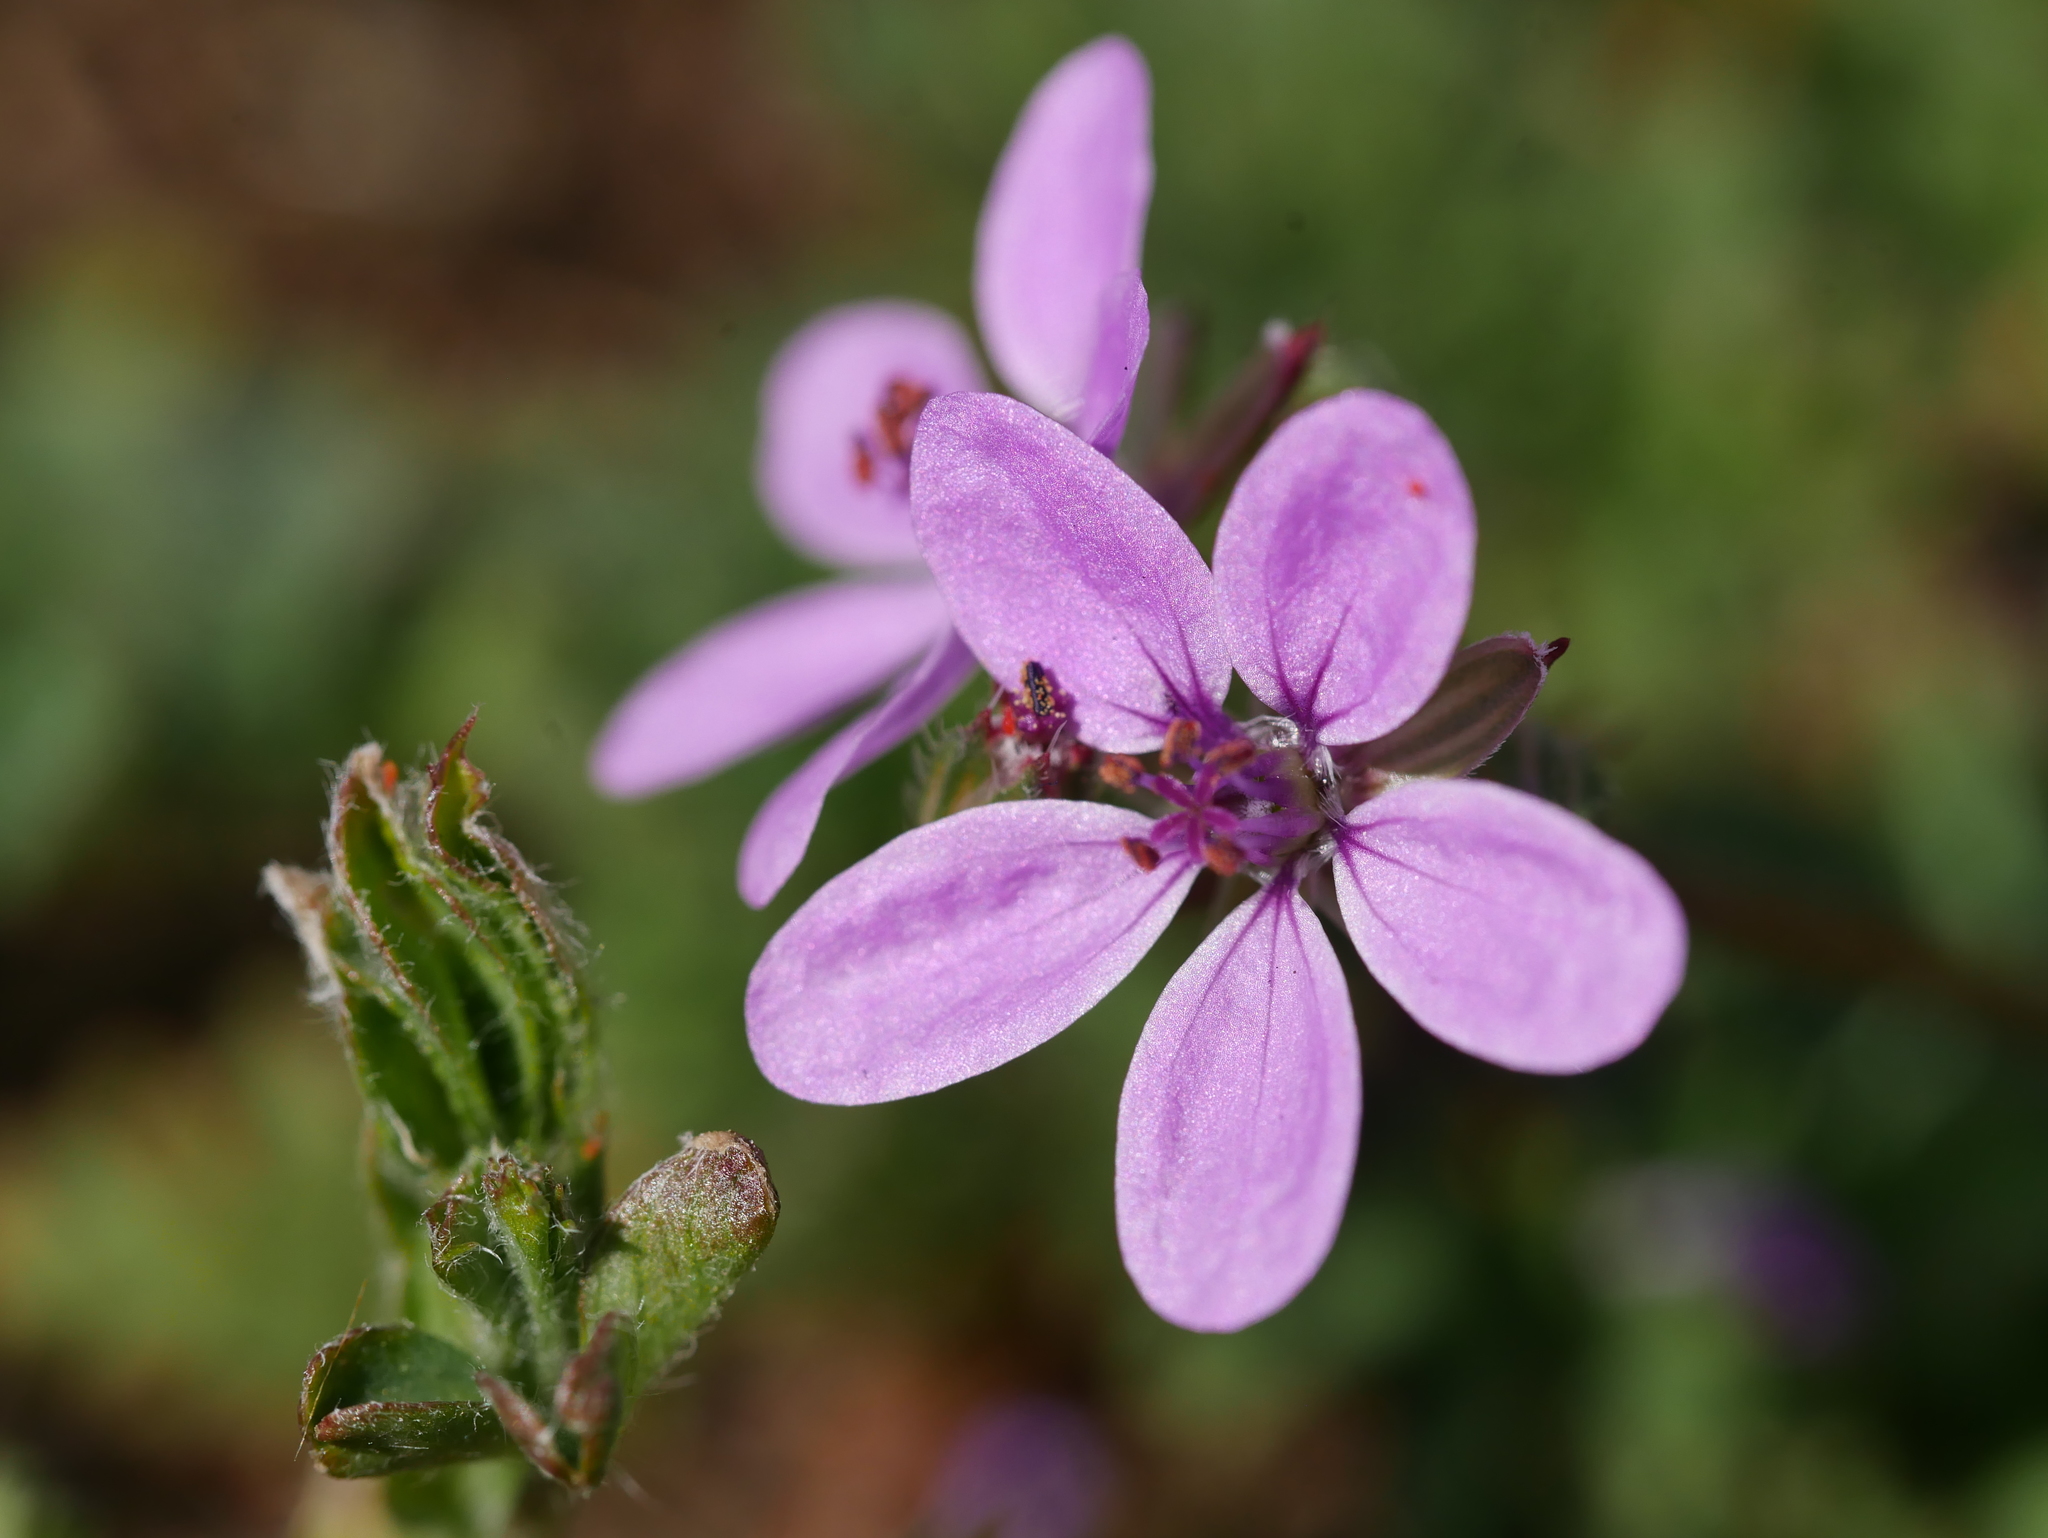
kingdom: Plantae
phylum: Tracheophyta
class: Magnoliopsida
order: Geraniales
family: Geraniaceae
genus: Erodium
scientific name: Erodium cicutarium
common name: Common stork's-bill
